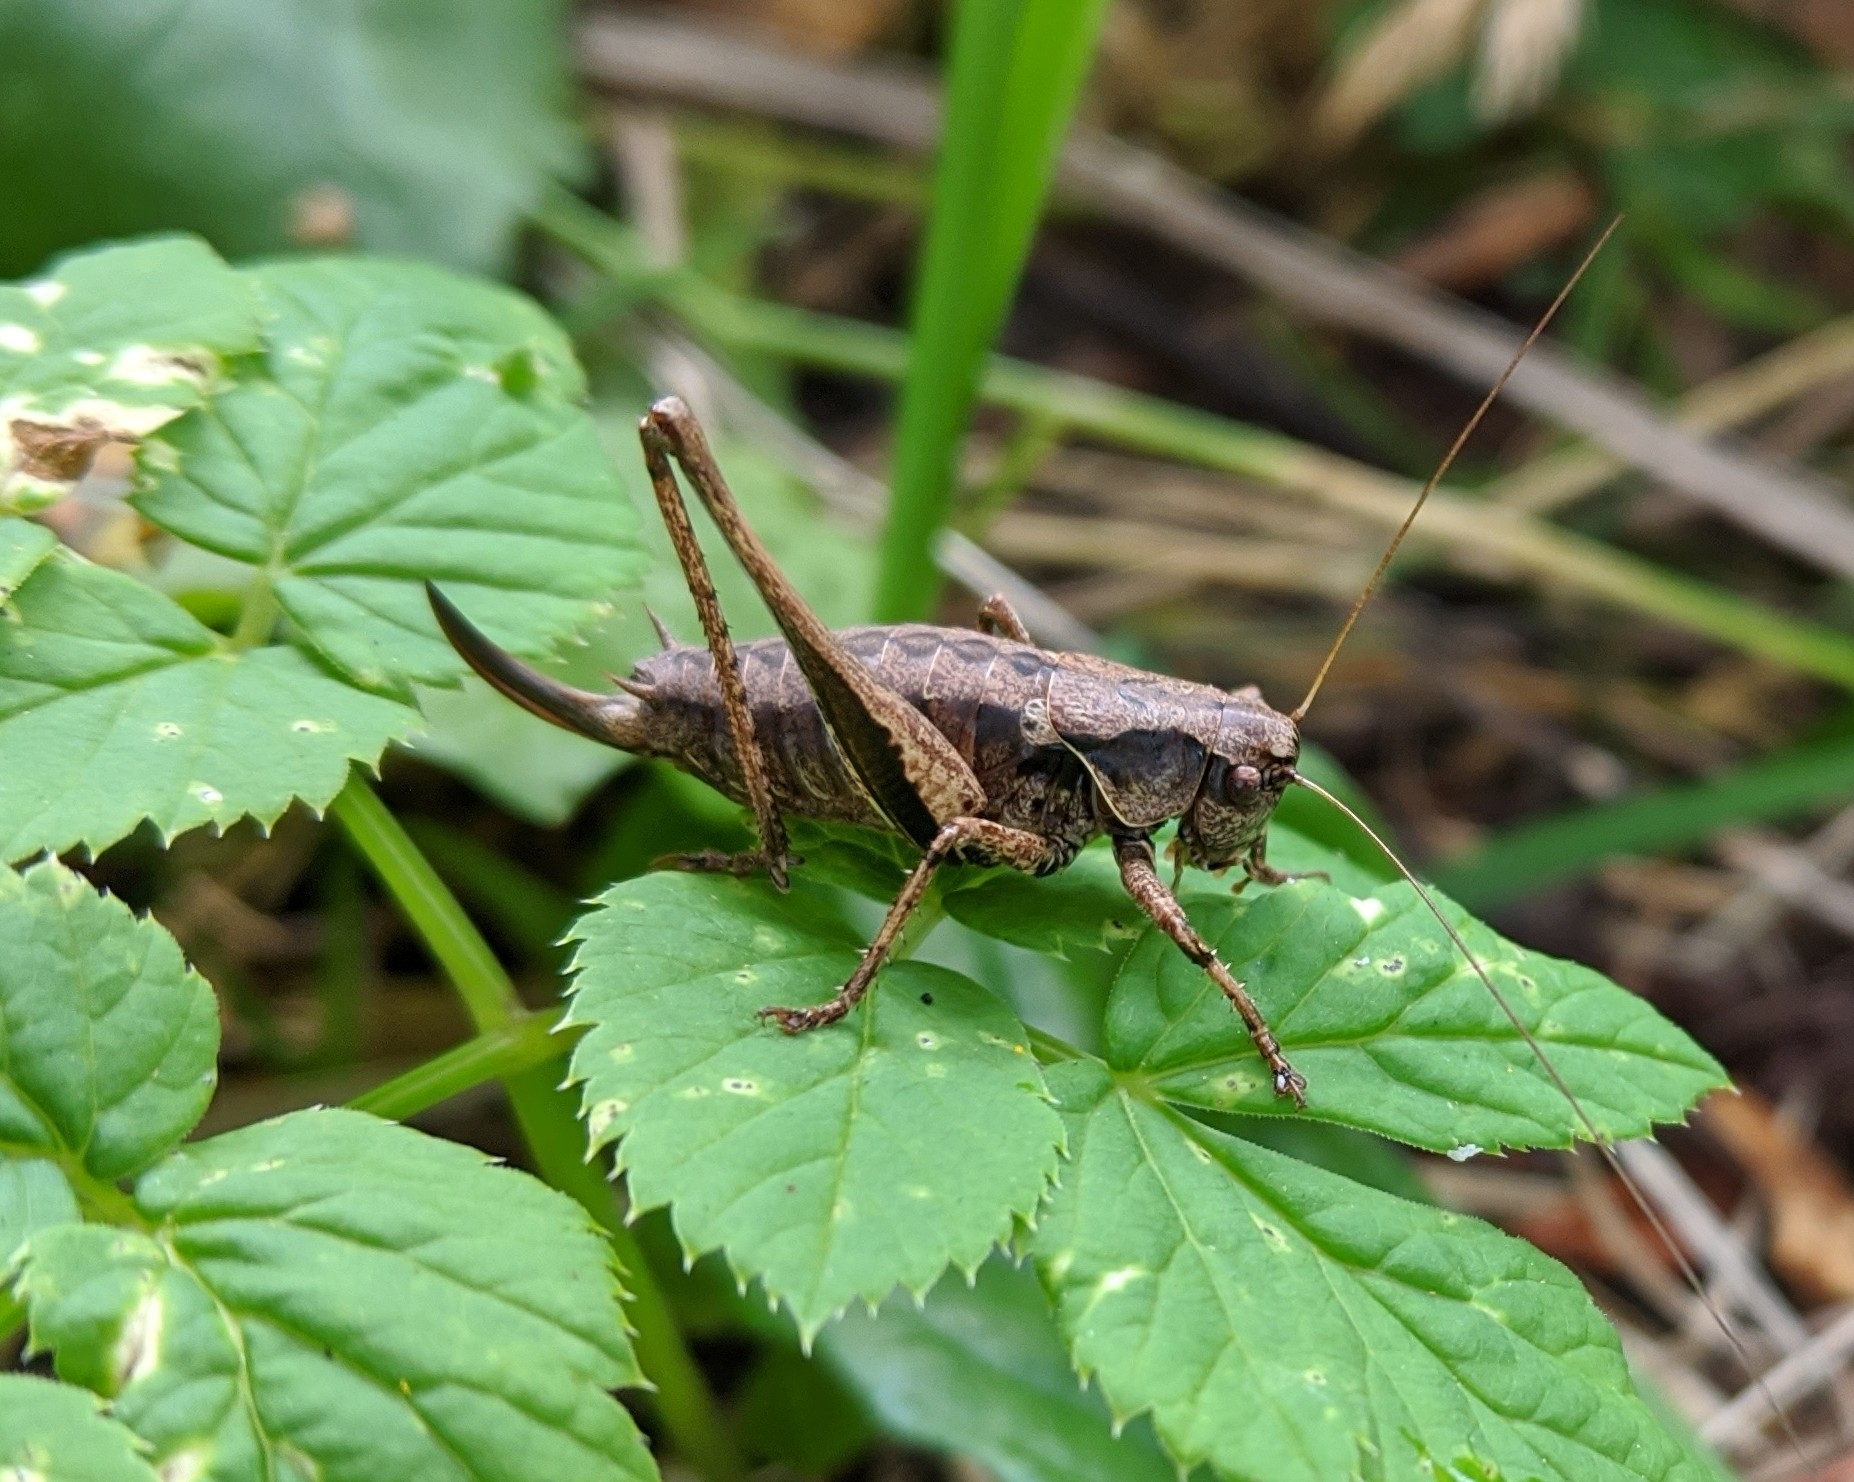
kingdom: Animalia
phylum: Arthropoda
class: Insecta
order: Orthoptera
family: Tettigoniidae
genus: Pholidoptera
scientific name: Pholidoptera griseoaptera
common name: Dark bush-cricket
